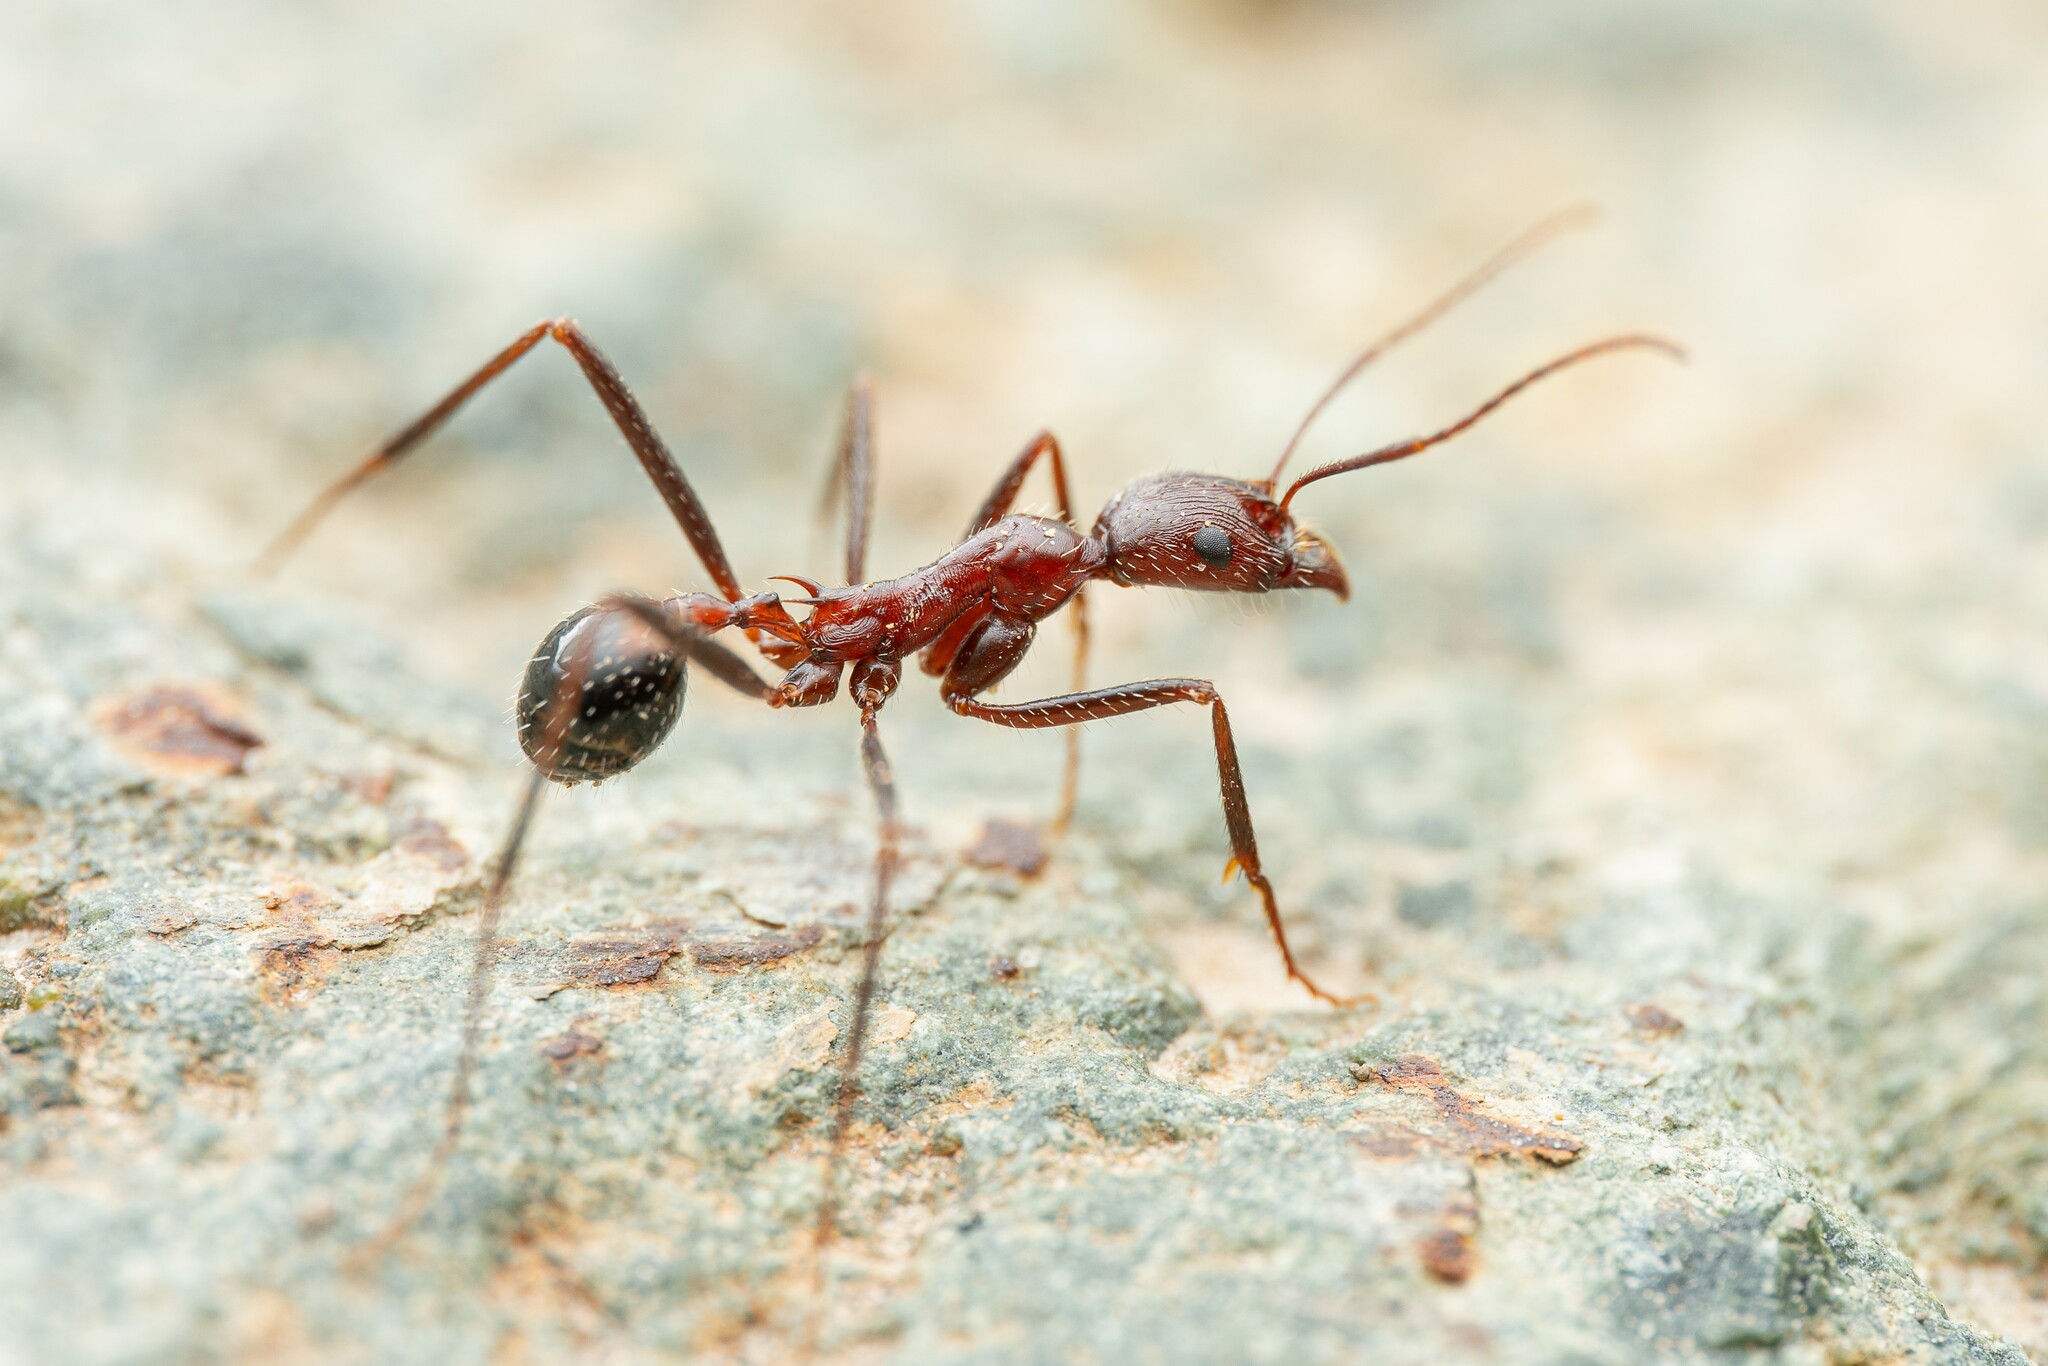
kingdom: Animalia
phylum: Arthropoda
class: Insecta
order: Hymenoptera
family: Formicidae
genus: Novomessor
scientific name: Novomessor cockerelli
